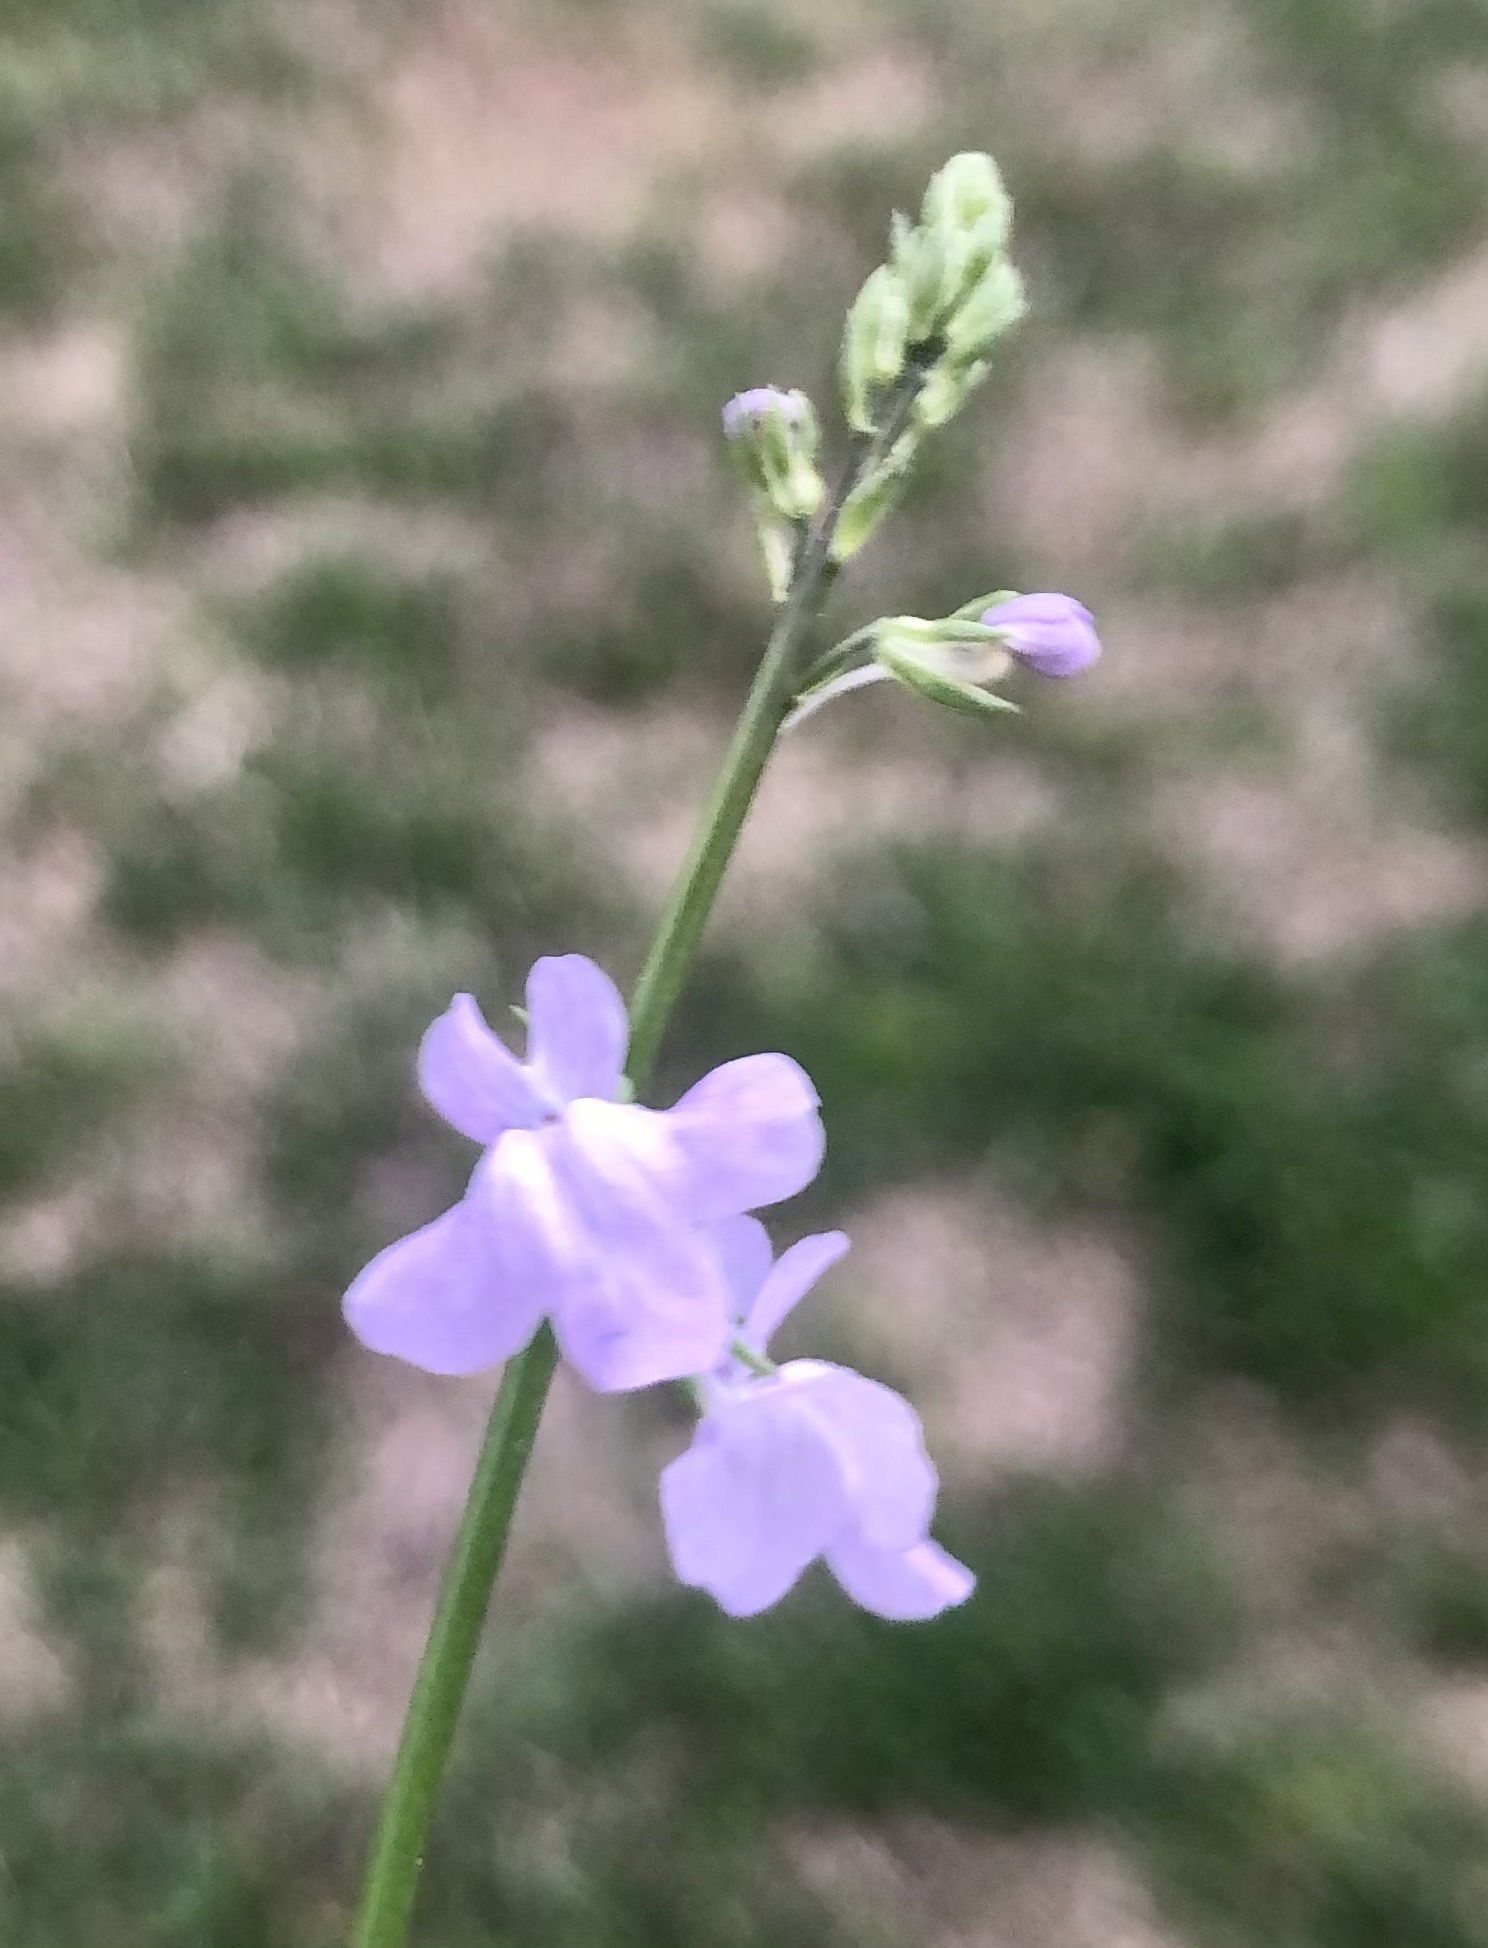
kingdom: Plantae
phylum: Tracheophyta
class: Magnoliopsida
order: Lamiales
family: Plantaginaceae
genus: Nuttallanthus
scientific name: Nuttallanthus texanus
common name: Texas toadflax
